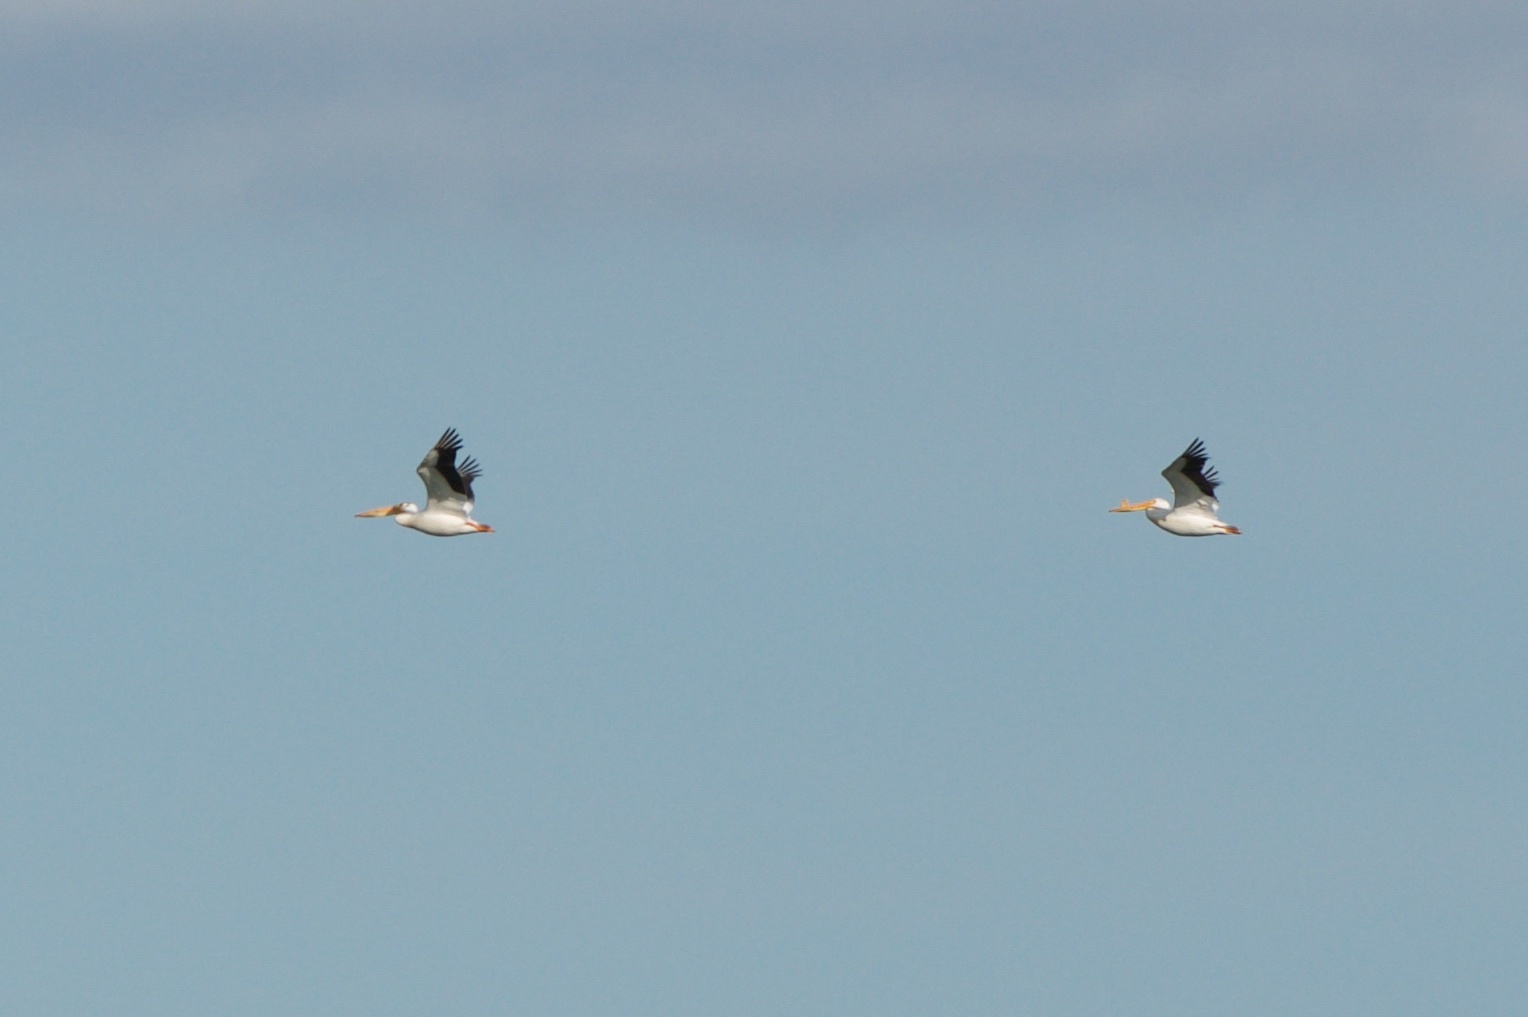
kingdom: Animalia
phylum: Chordata
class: Aves
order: Pelecaniformes
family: Pelecanidae
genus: Pelecanus
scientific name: Pelecanus erythrorhynchos
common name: American white pelican
